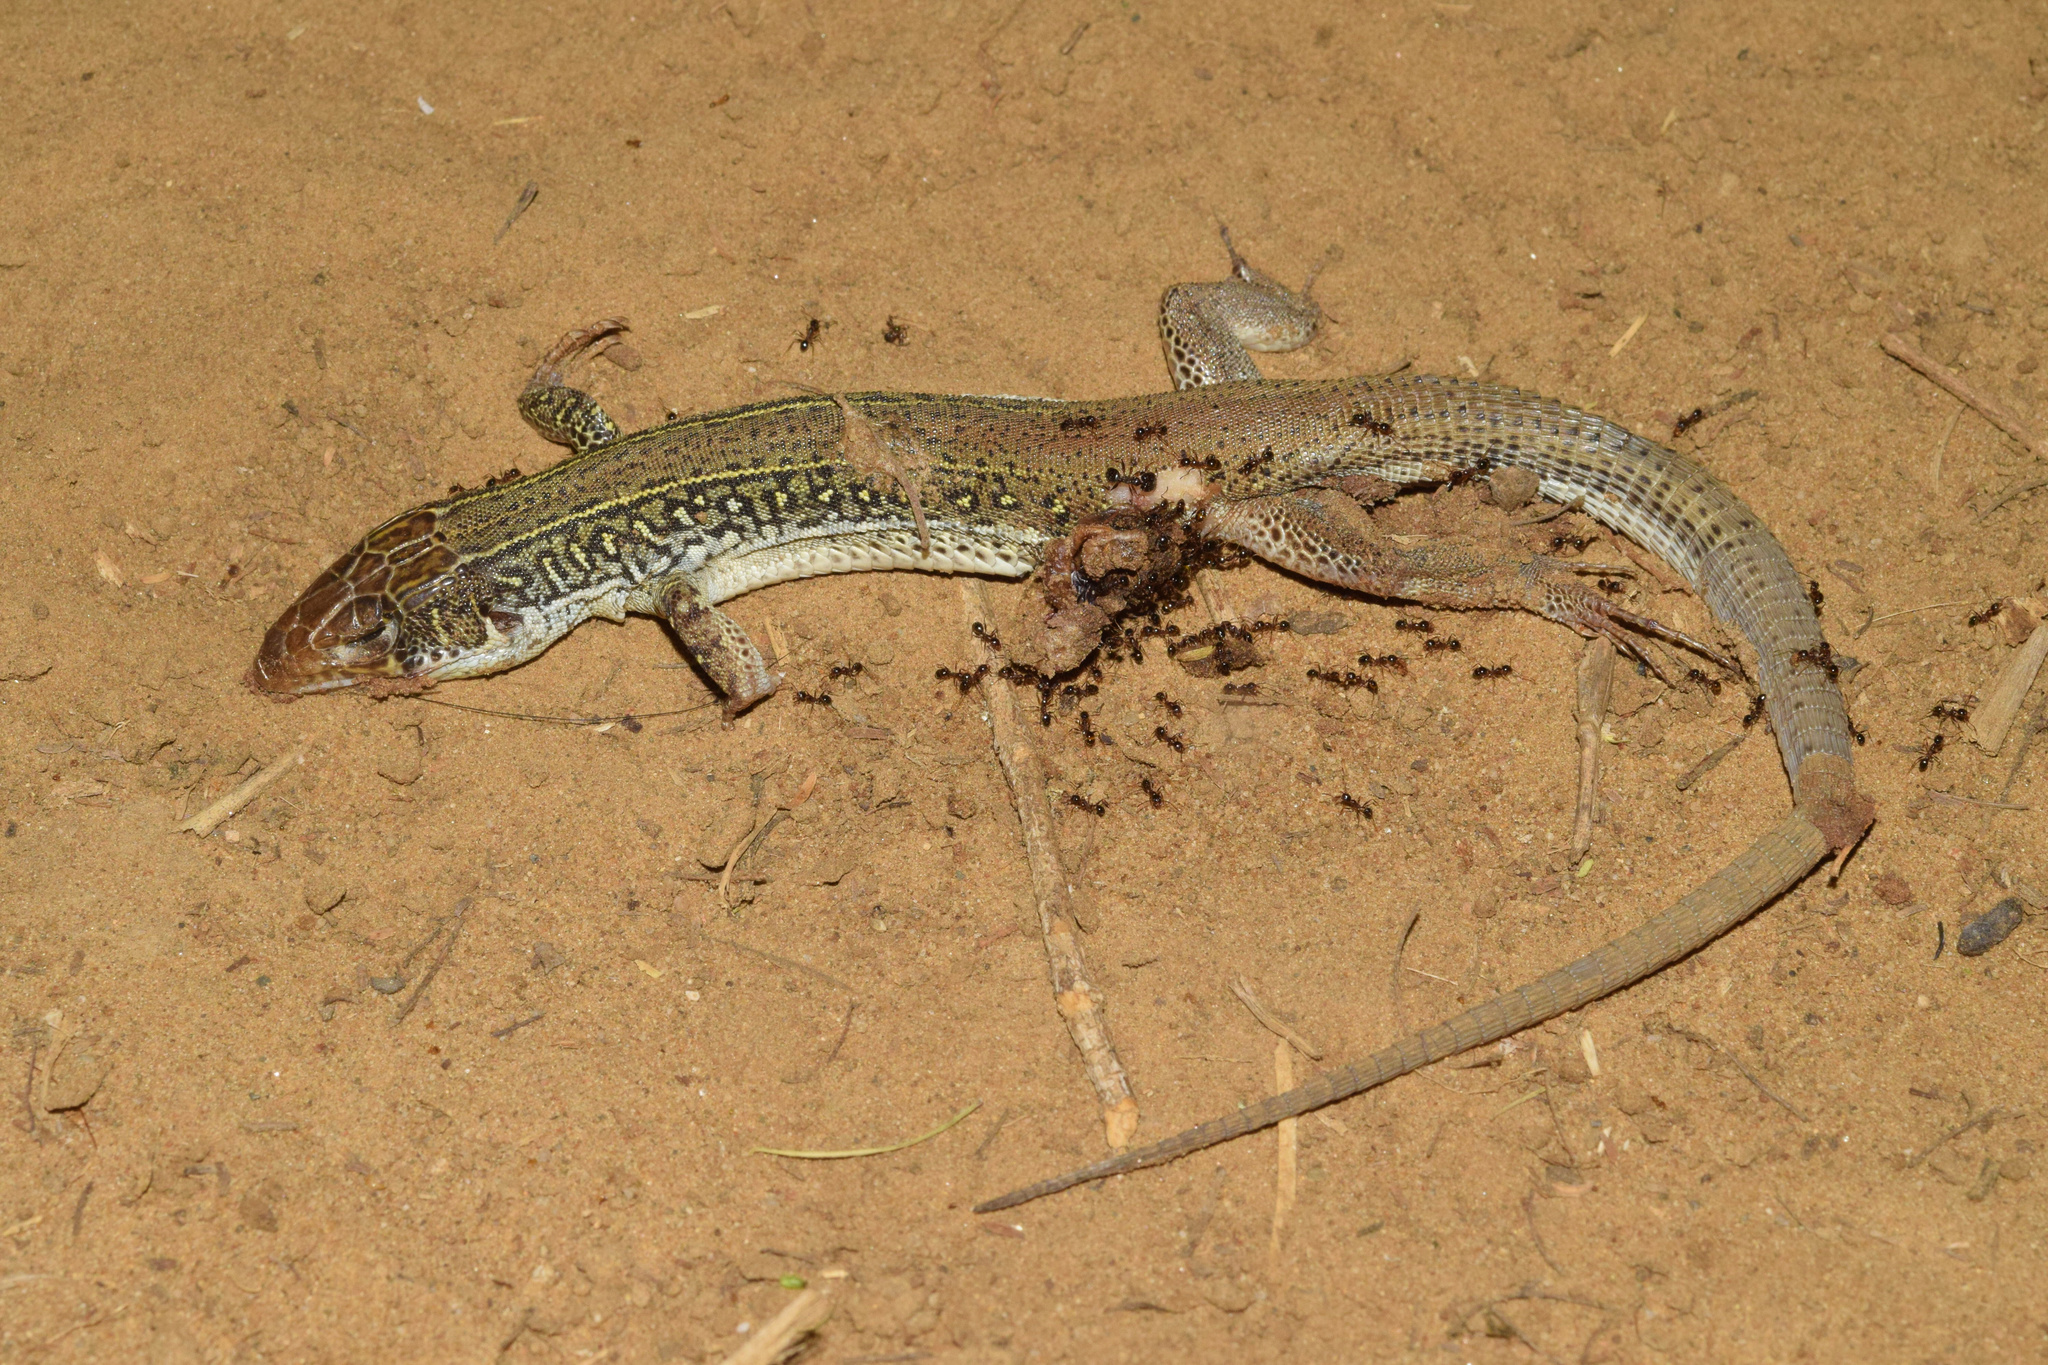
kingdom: Animalia
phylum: Chordata
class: Squamata
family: Lacertidae
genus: Nucras
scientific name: Nucras ornata
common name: Ornate sandveld lizard
